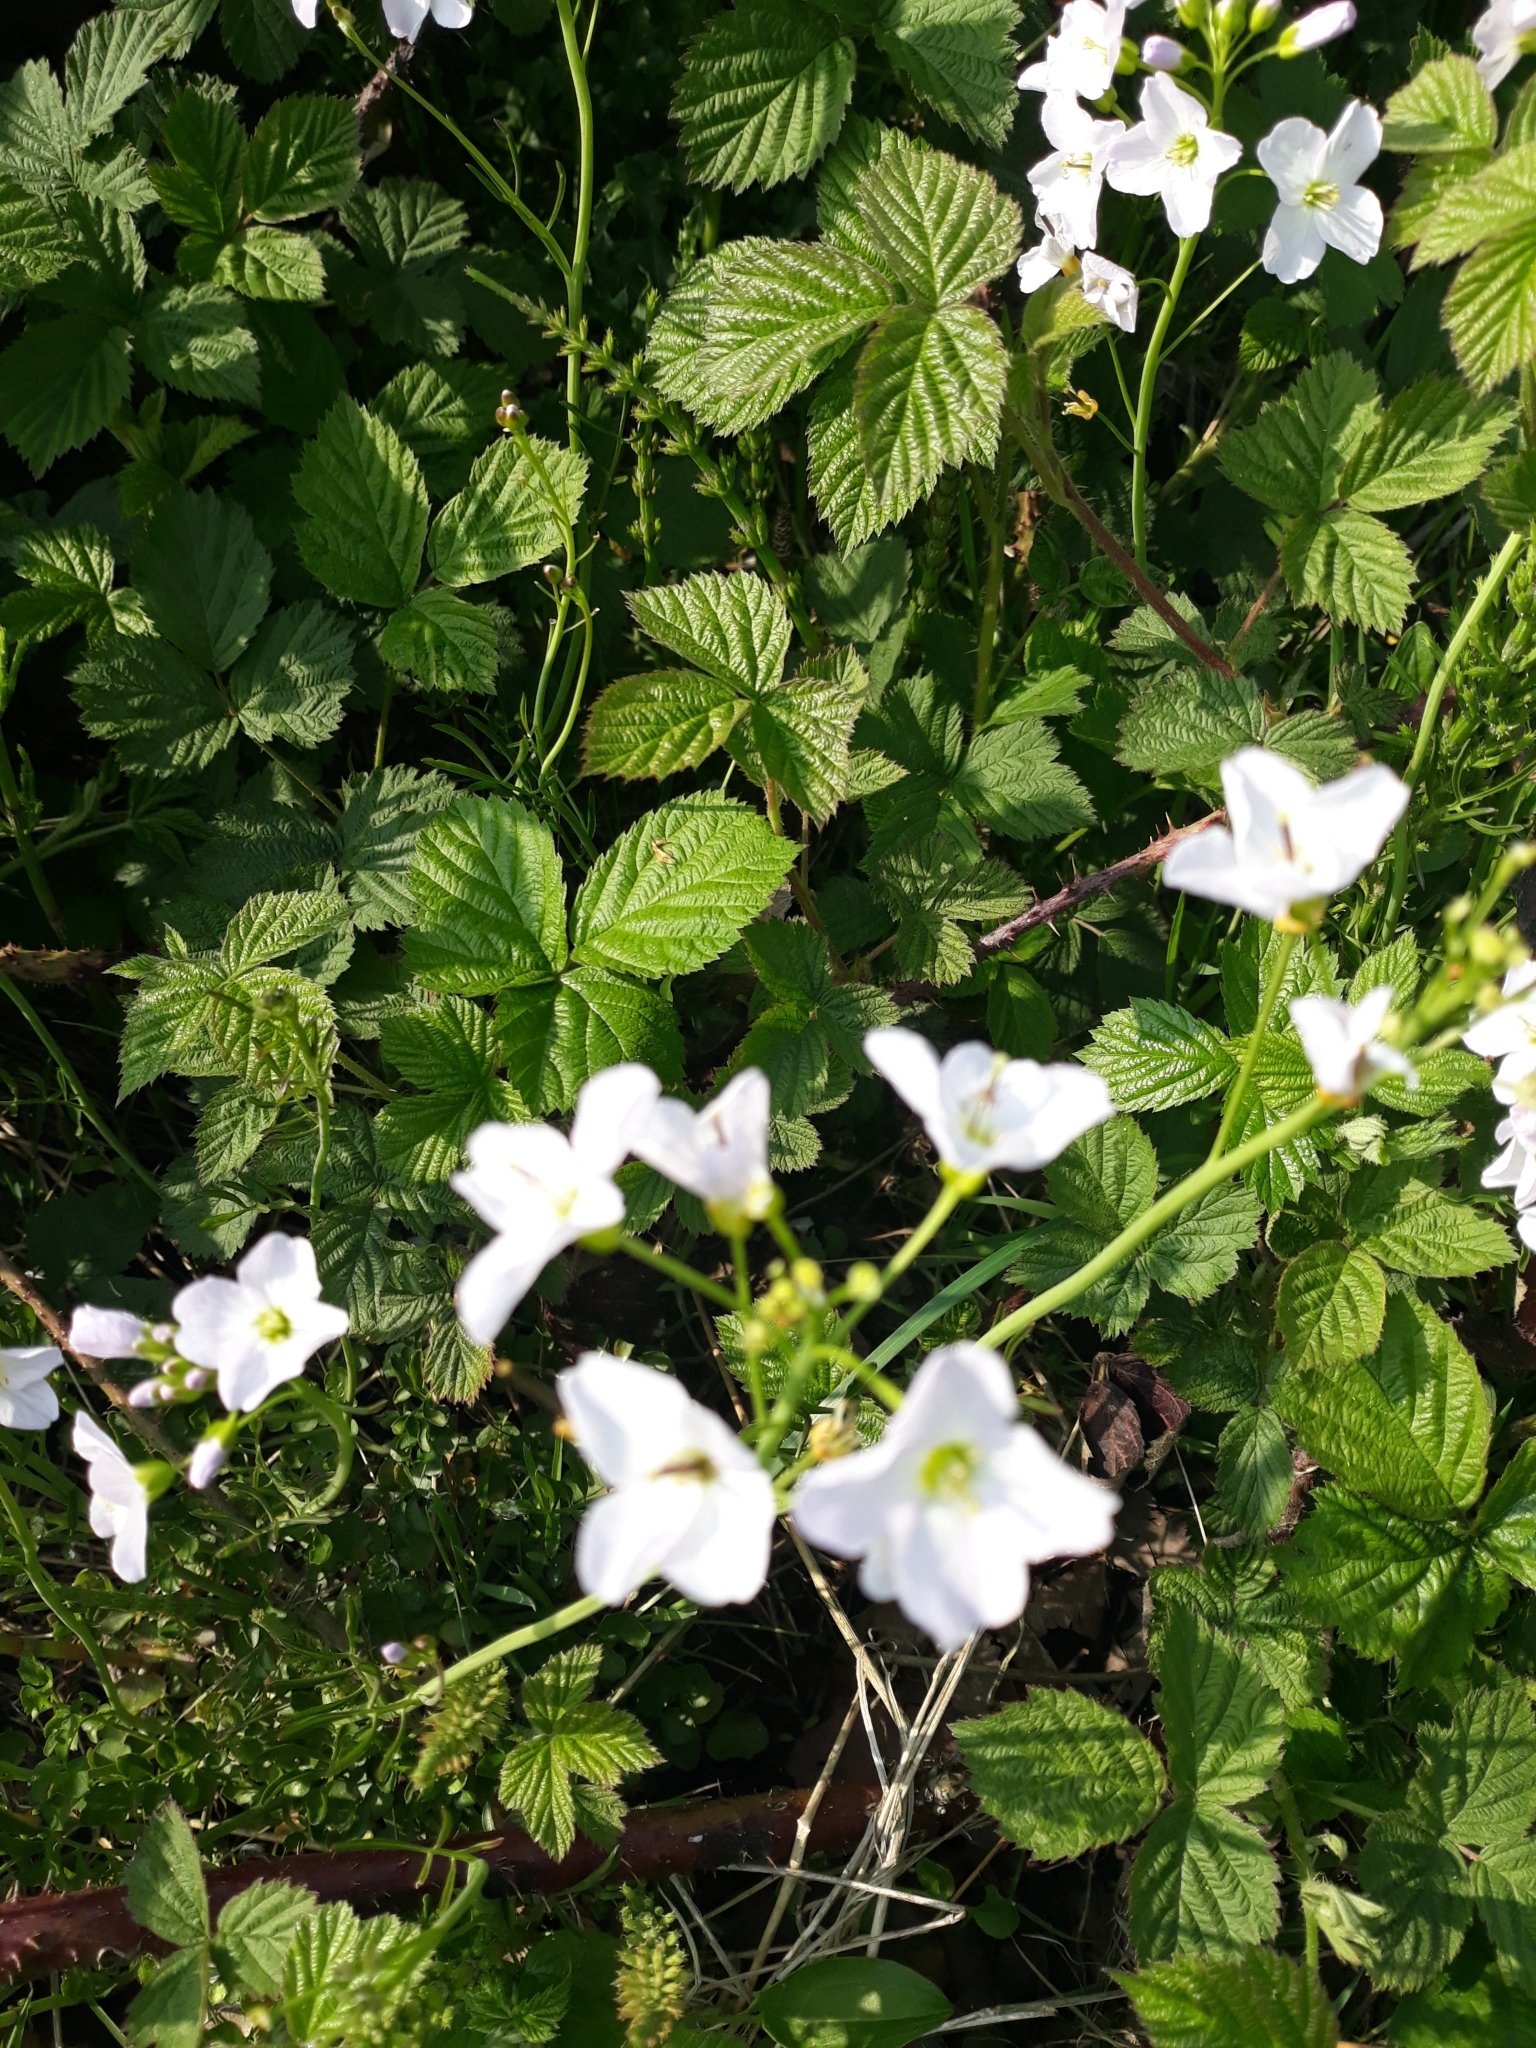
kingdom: Plantae
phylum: Tracheophyta
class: Magnoliopsida
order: Brassicales
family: Brassicaceae
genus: Cardamine
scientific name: Cardamine pratensis
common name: Cuckoo flower
